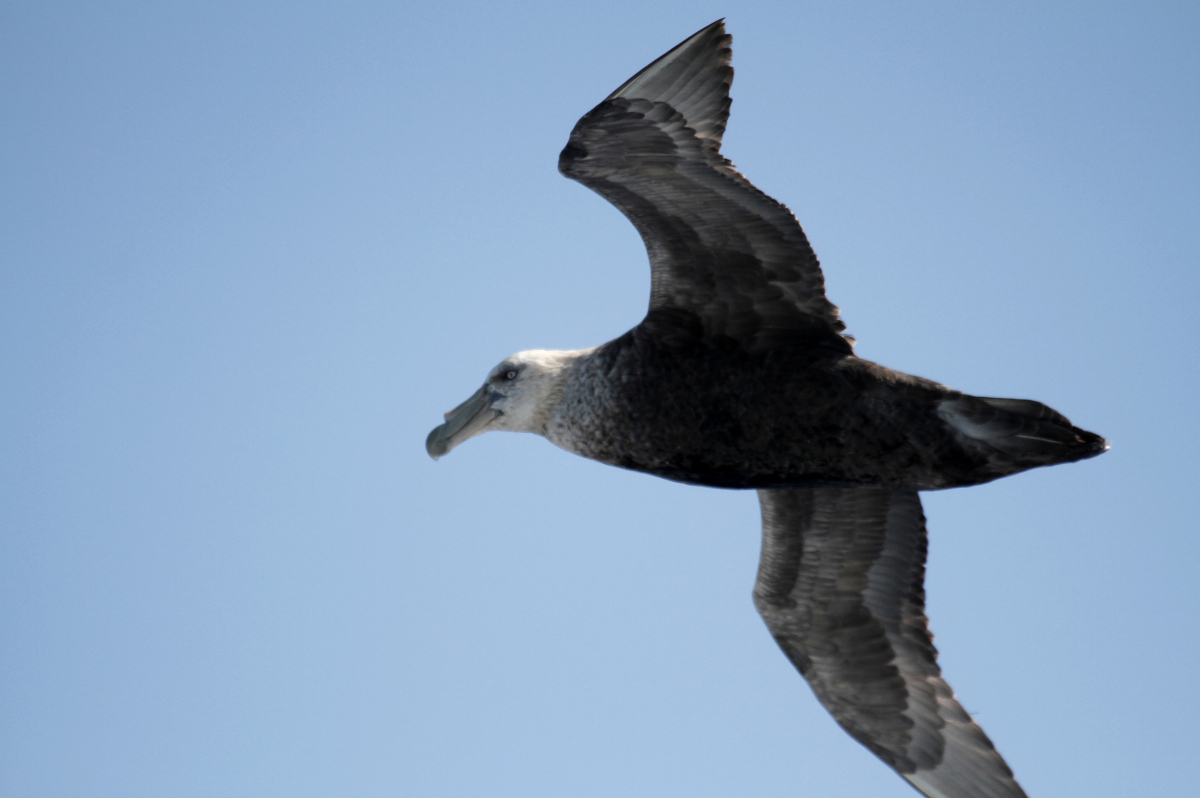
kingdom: Animalia
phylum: Chordata
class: Aves
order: Procellariiformes
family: Procellariidae
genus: Macronectes
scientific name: Macronectes giganteus
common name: Southern giant petrel
